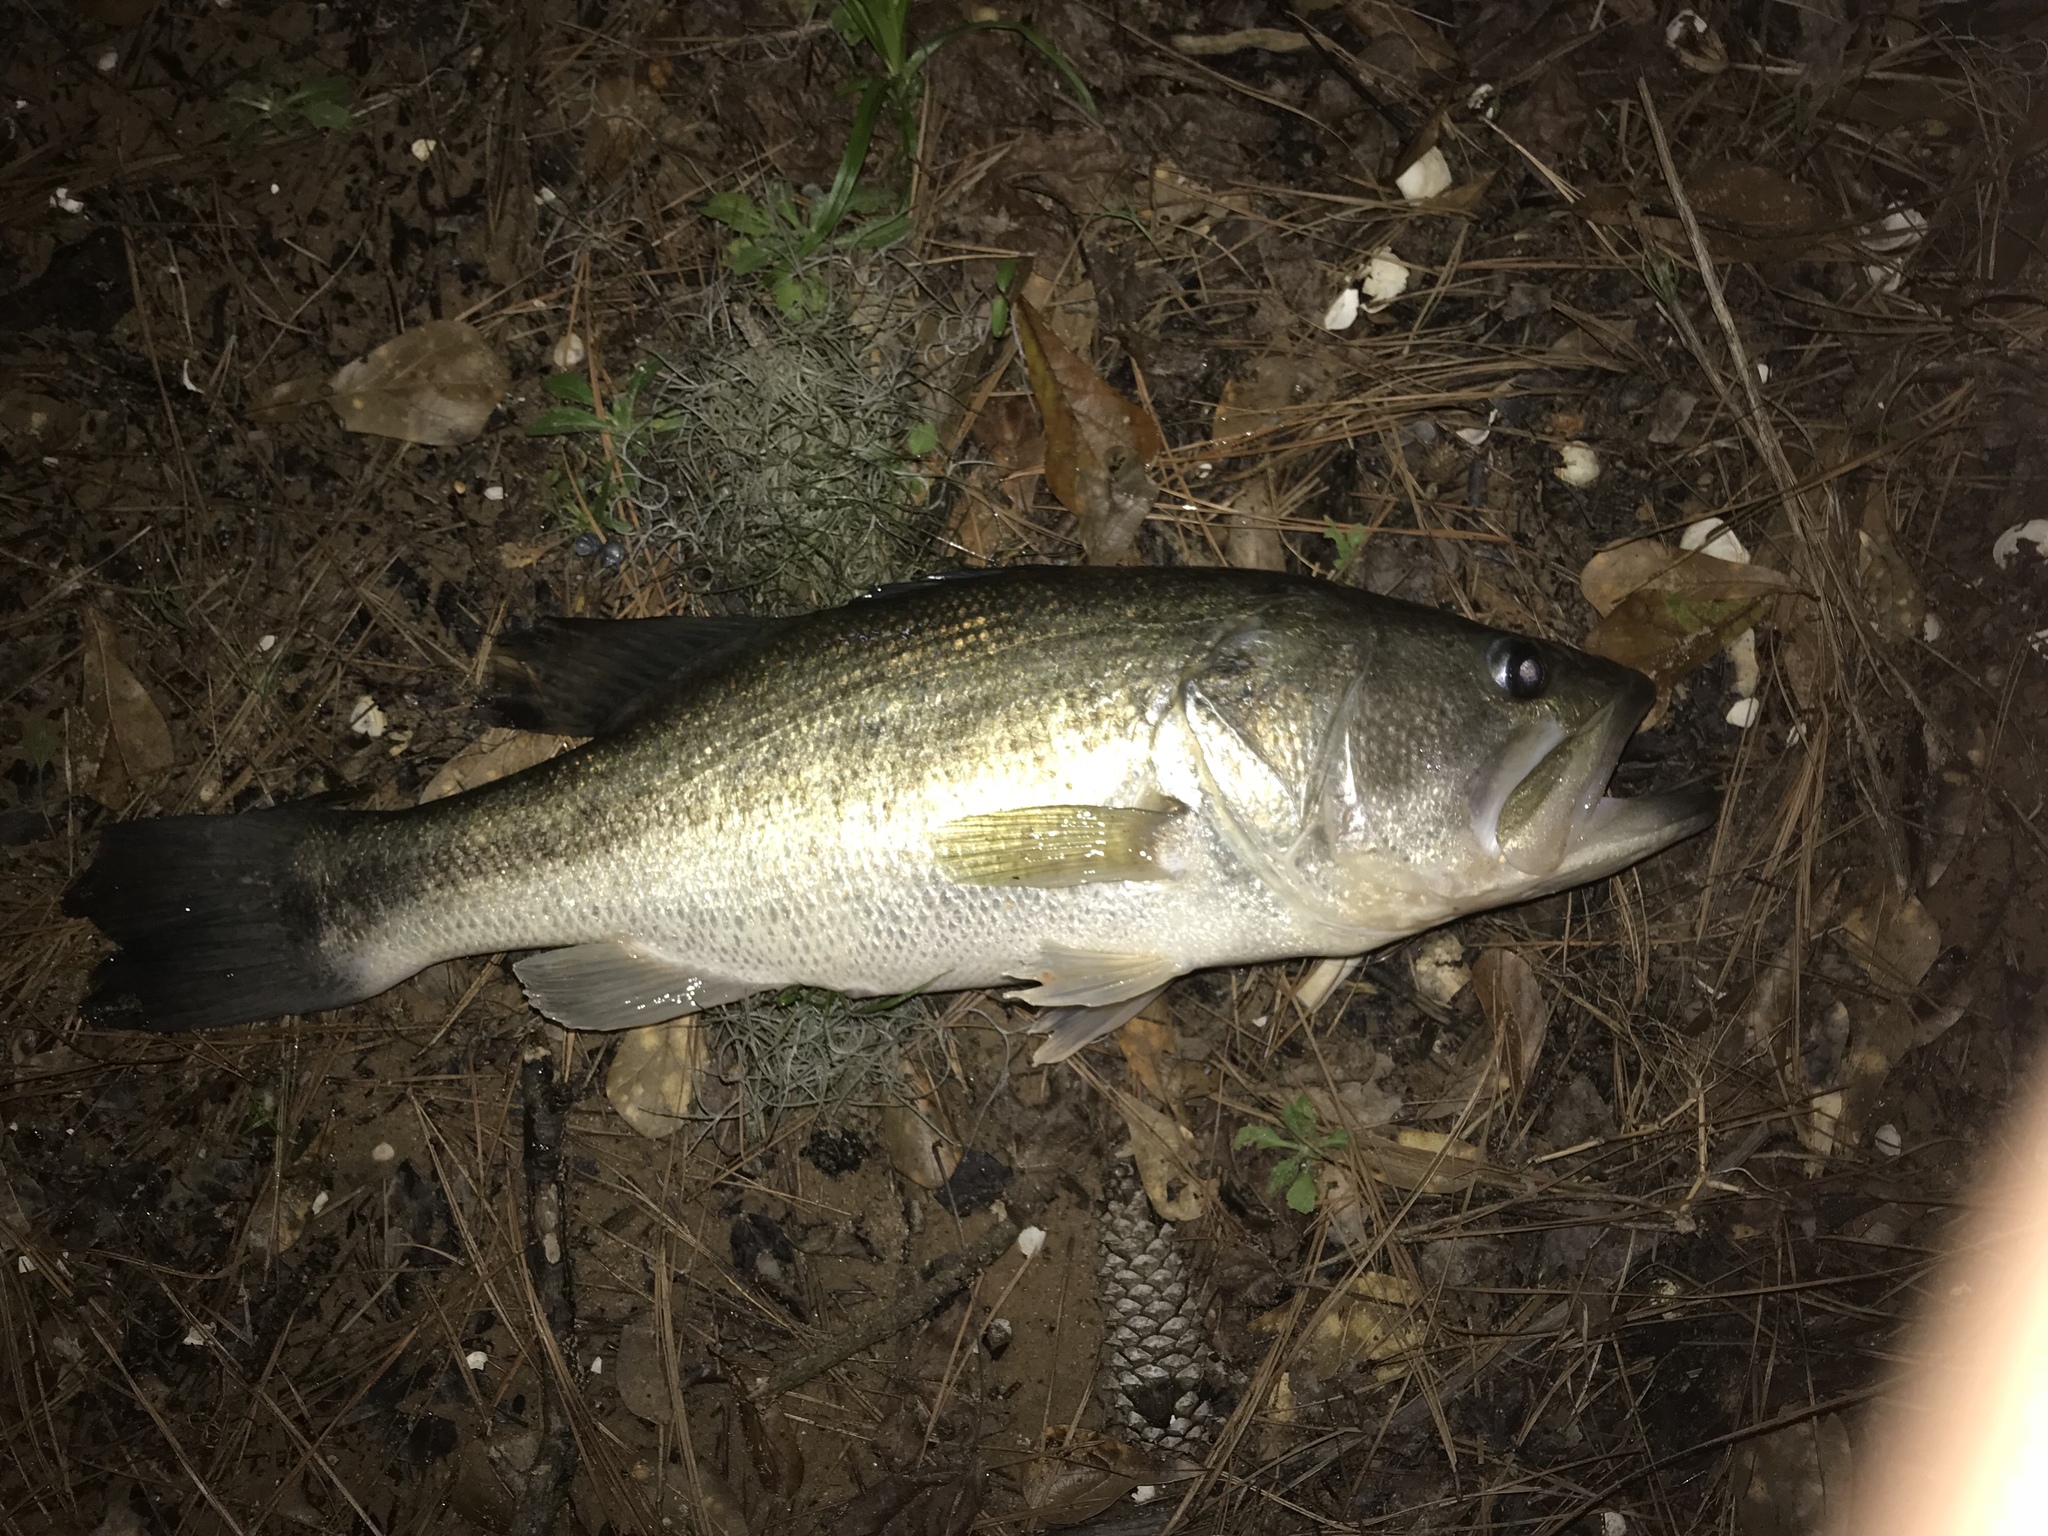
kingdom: Animalia
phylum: Chordata
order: Perciformes
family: Centrarchidae
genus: Micropterus
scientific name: Micropterus
